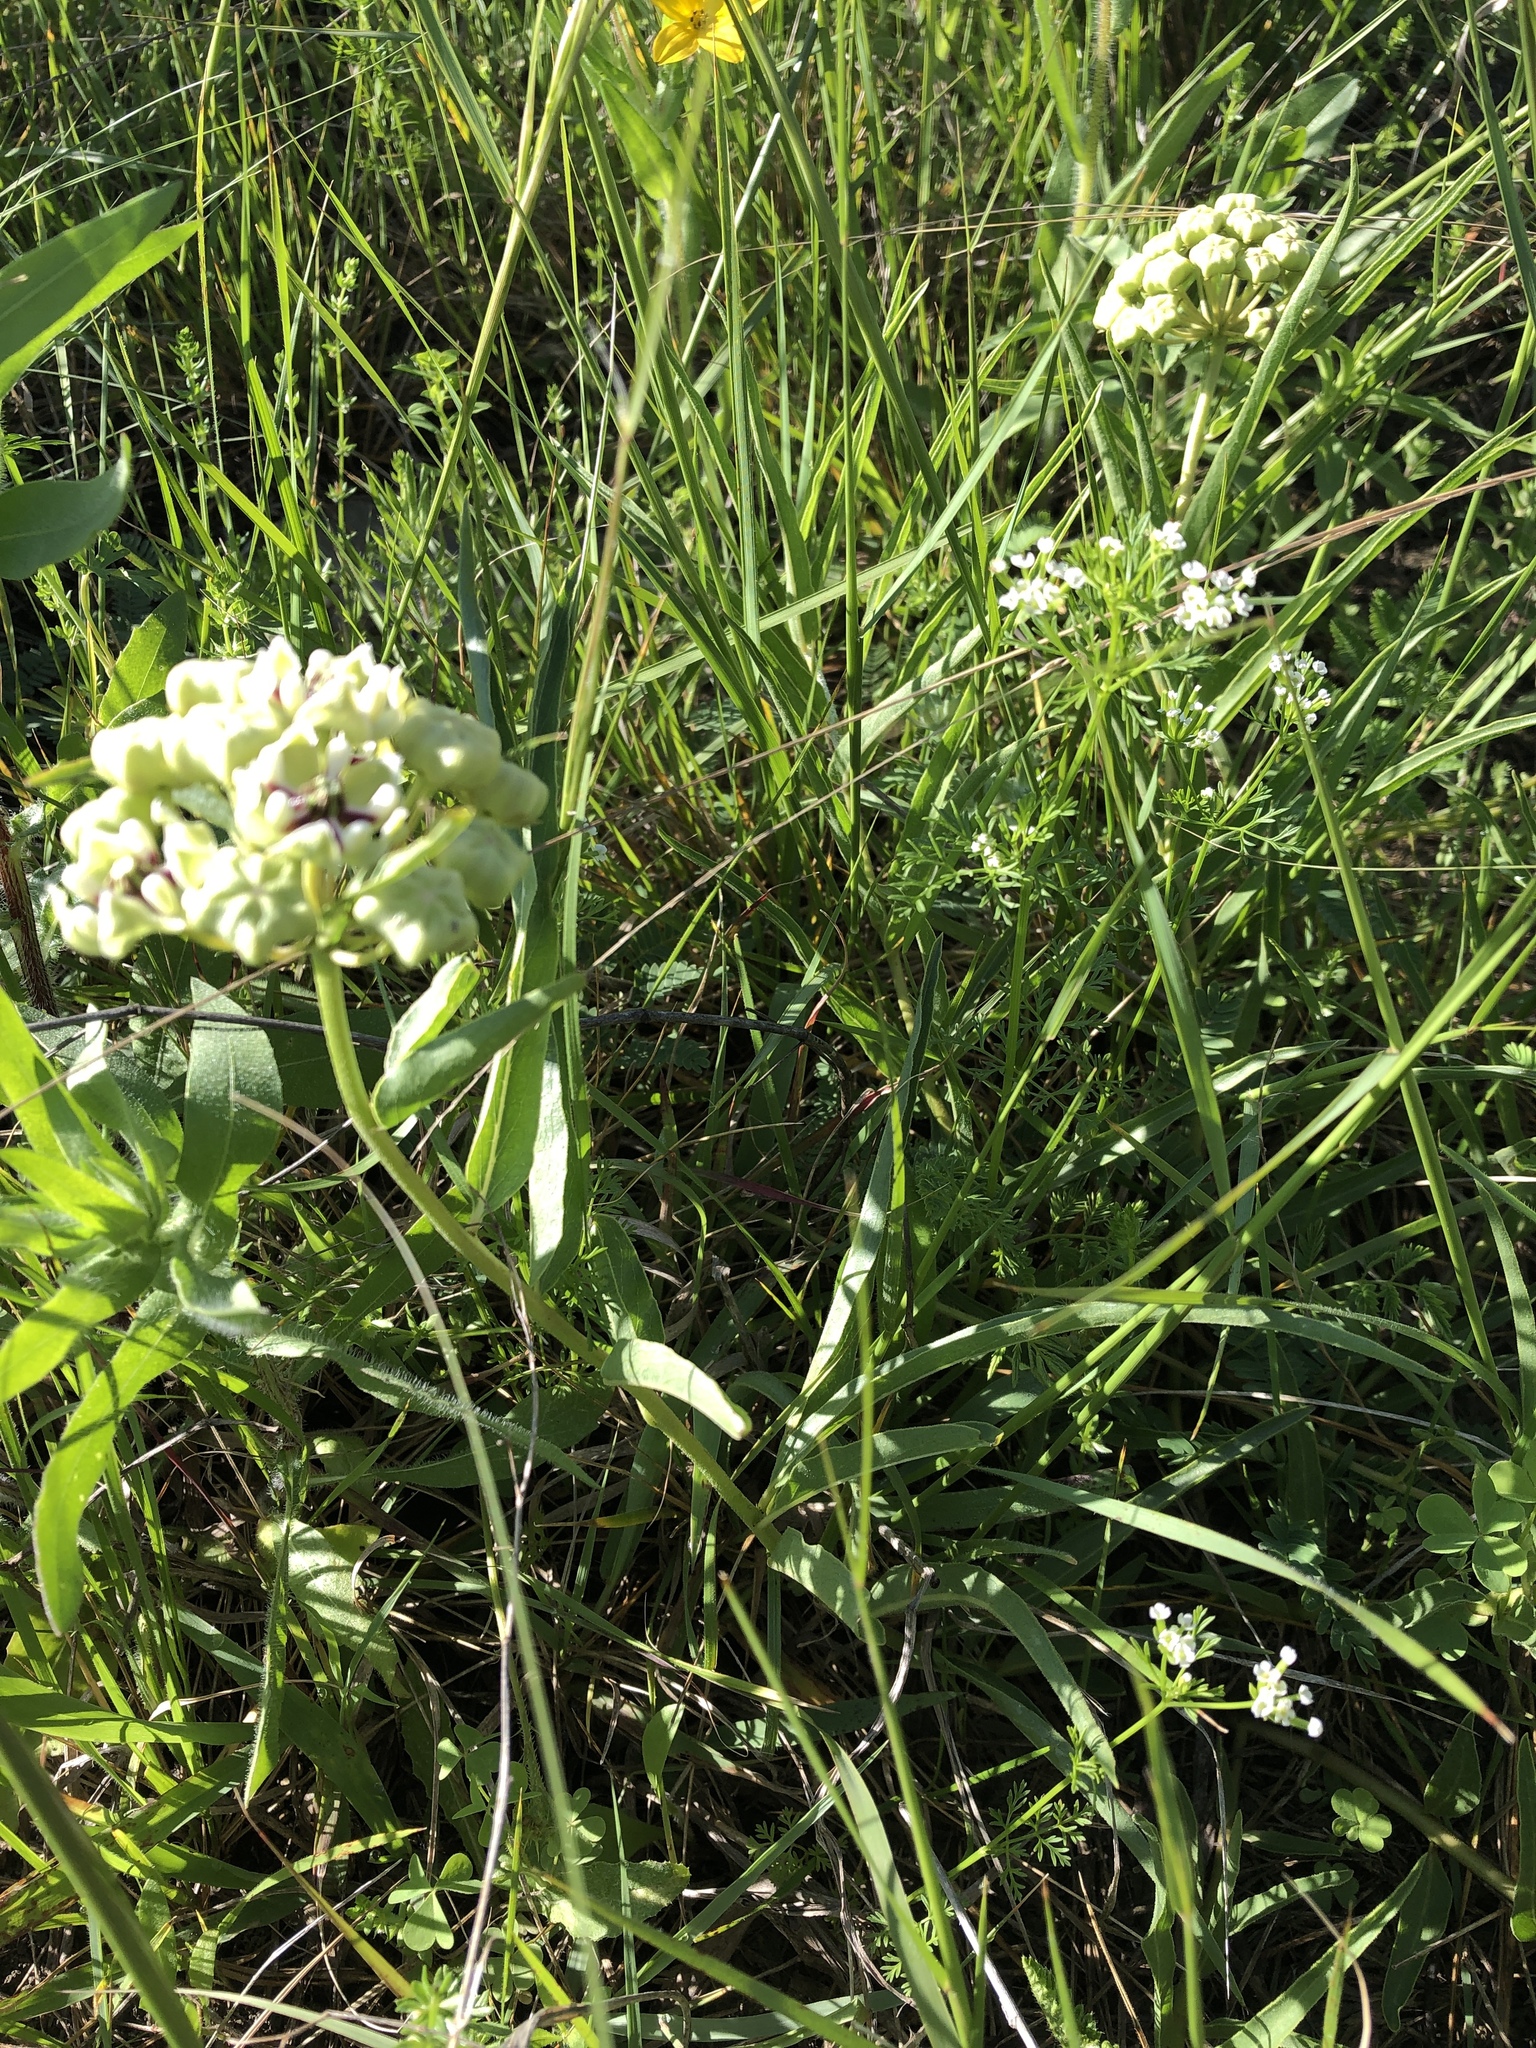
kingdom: Plantae
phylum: Tracheophyta
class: Magnoliopsida
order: Gentianales
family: Apocynaceae
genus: Asclepias
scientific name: Asclepias asperula
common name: Antelope horns
